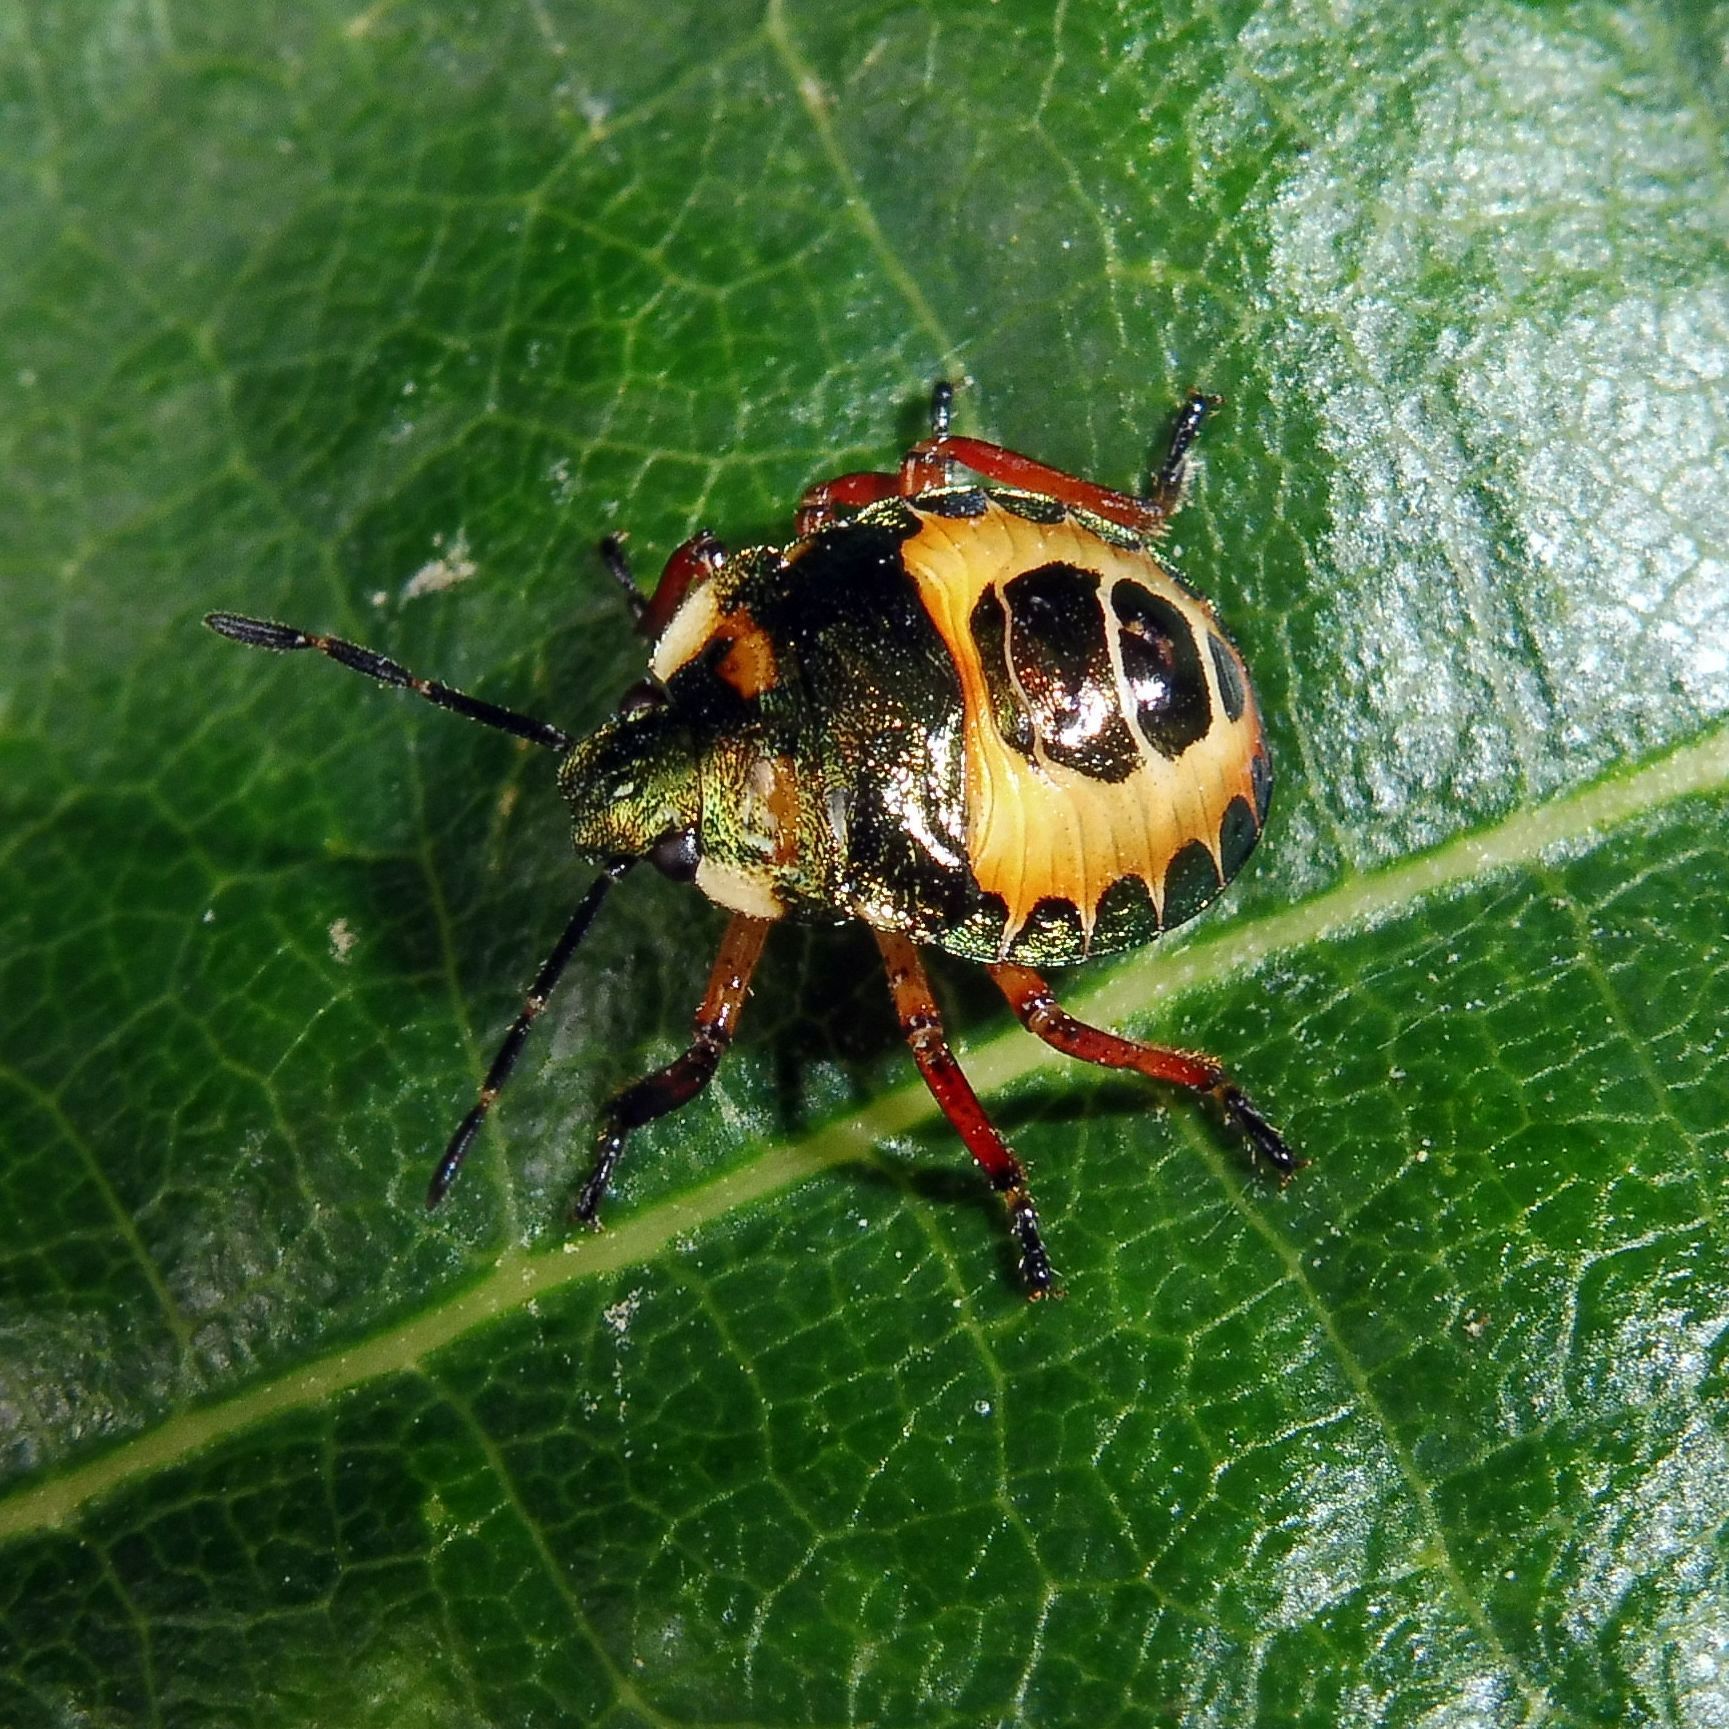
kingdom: Animalia
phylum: Arthropoda
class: Insecta
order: Hemiptera
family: Pentatomidae
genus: Troilus
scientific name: Troilus luridus
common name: Bronze shieldbug
